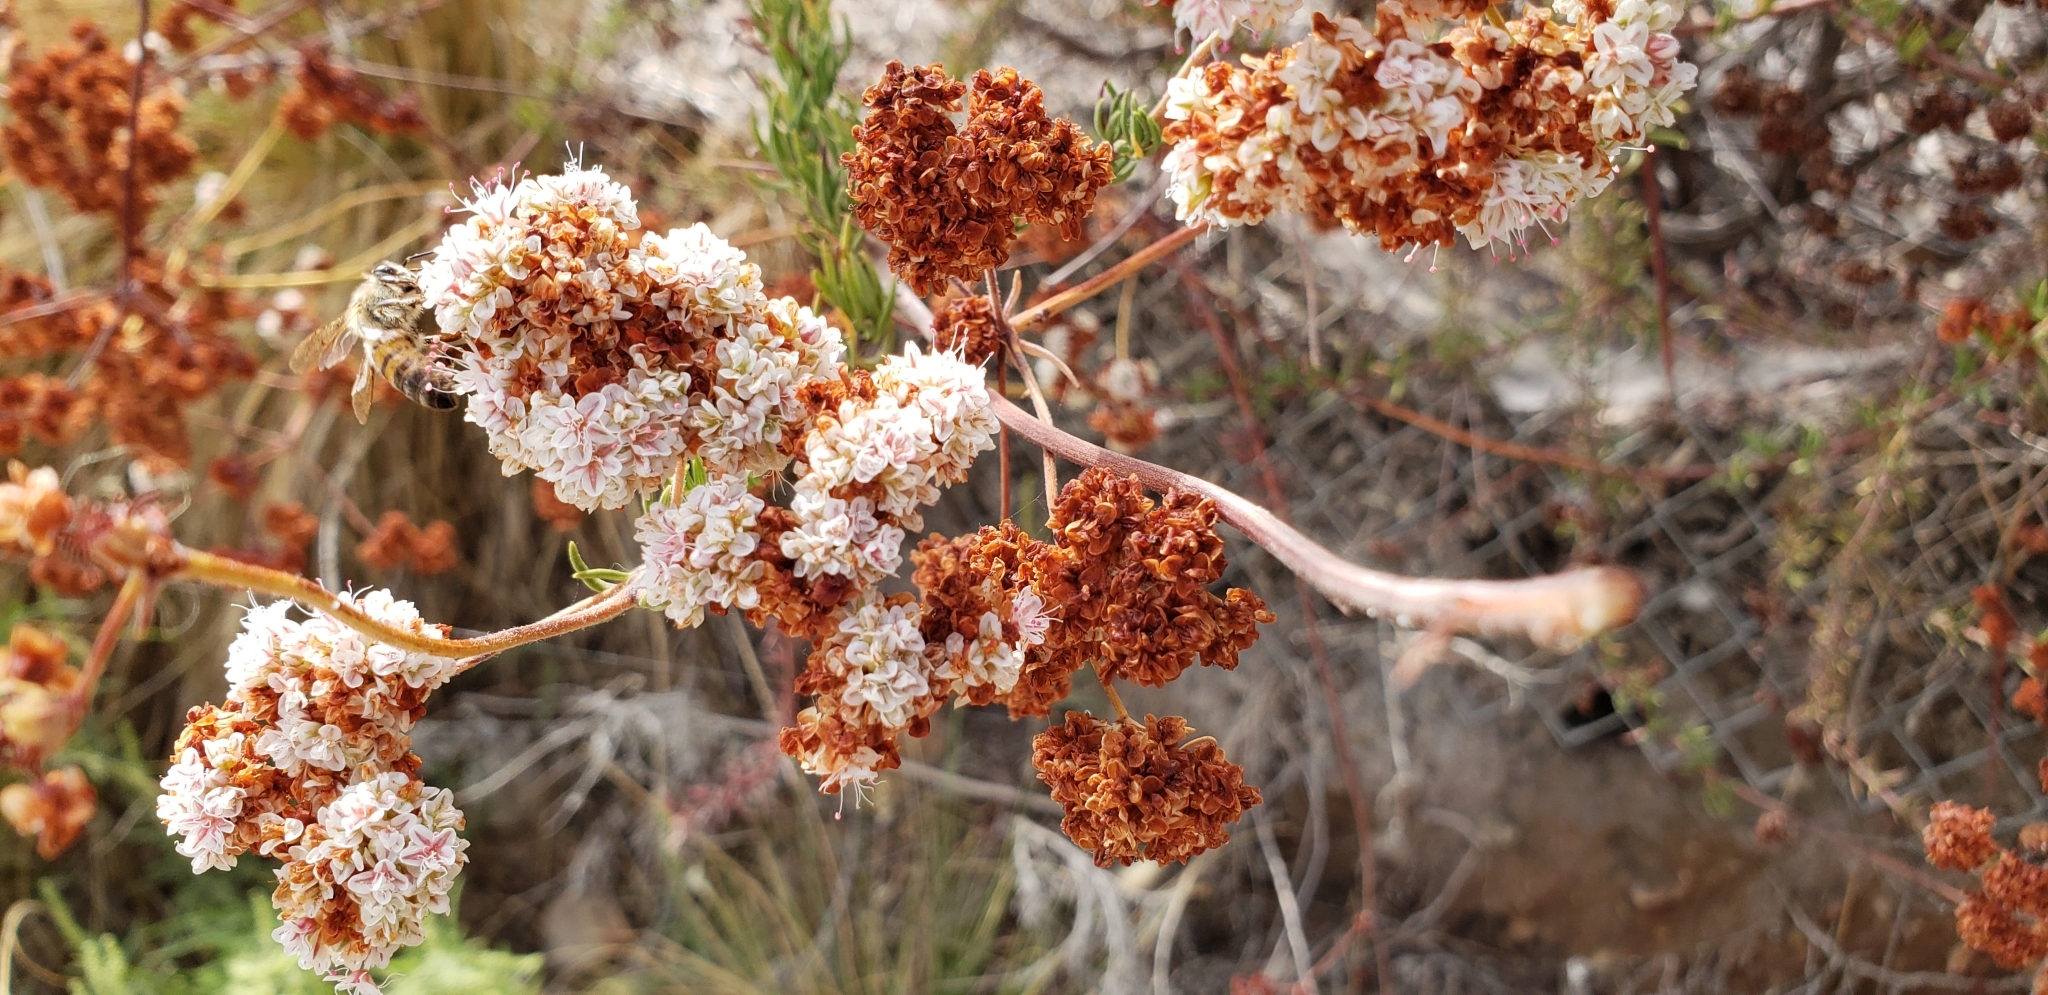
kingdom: Animalia
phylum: Arthropoda
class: Insecta
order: Hymenoptera
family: Apidae
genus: Apis
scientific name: Apis mellifera
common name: Honey bee
